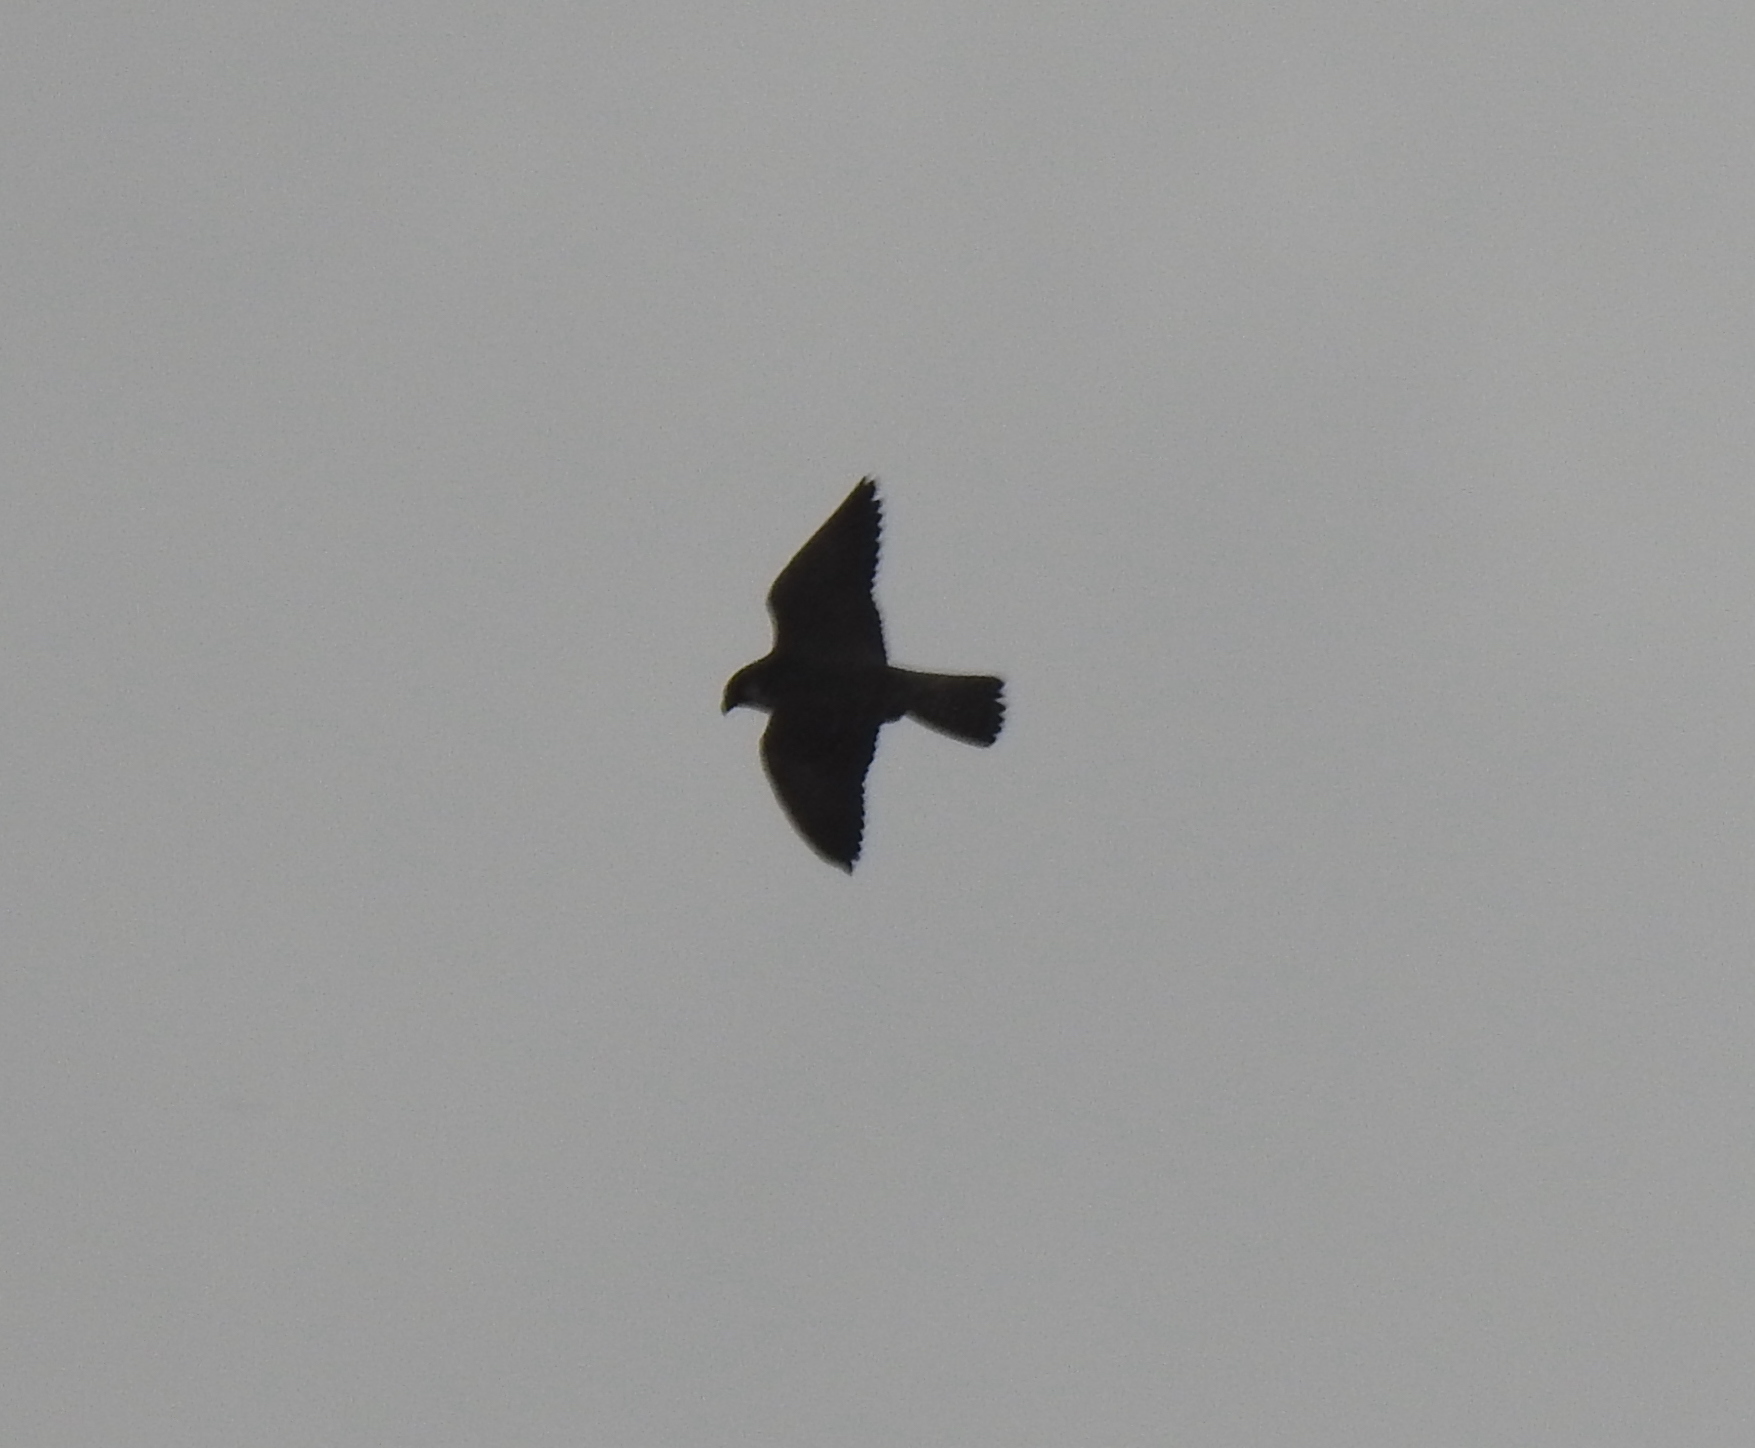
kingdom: Animalia
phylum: Chordata
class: Aves
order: Falconiformes
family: Falconidae
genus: Falco
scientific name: Falco peregrinus
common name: Peregrine falcon
